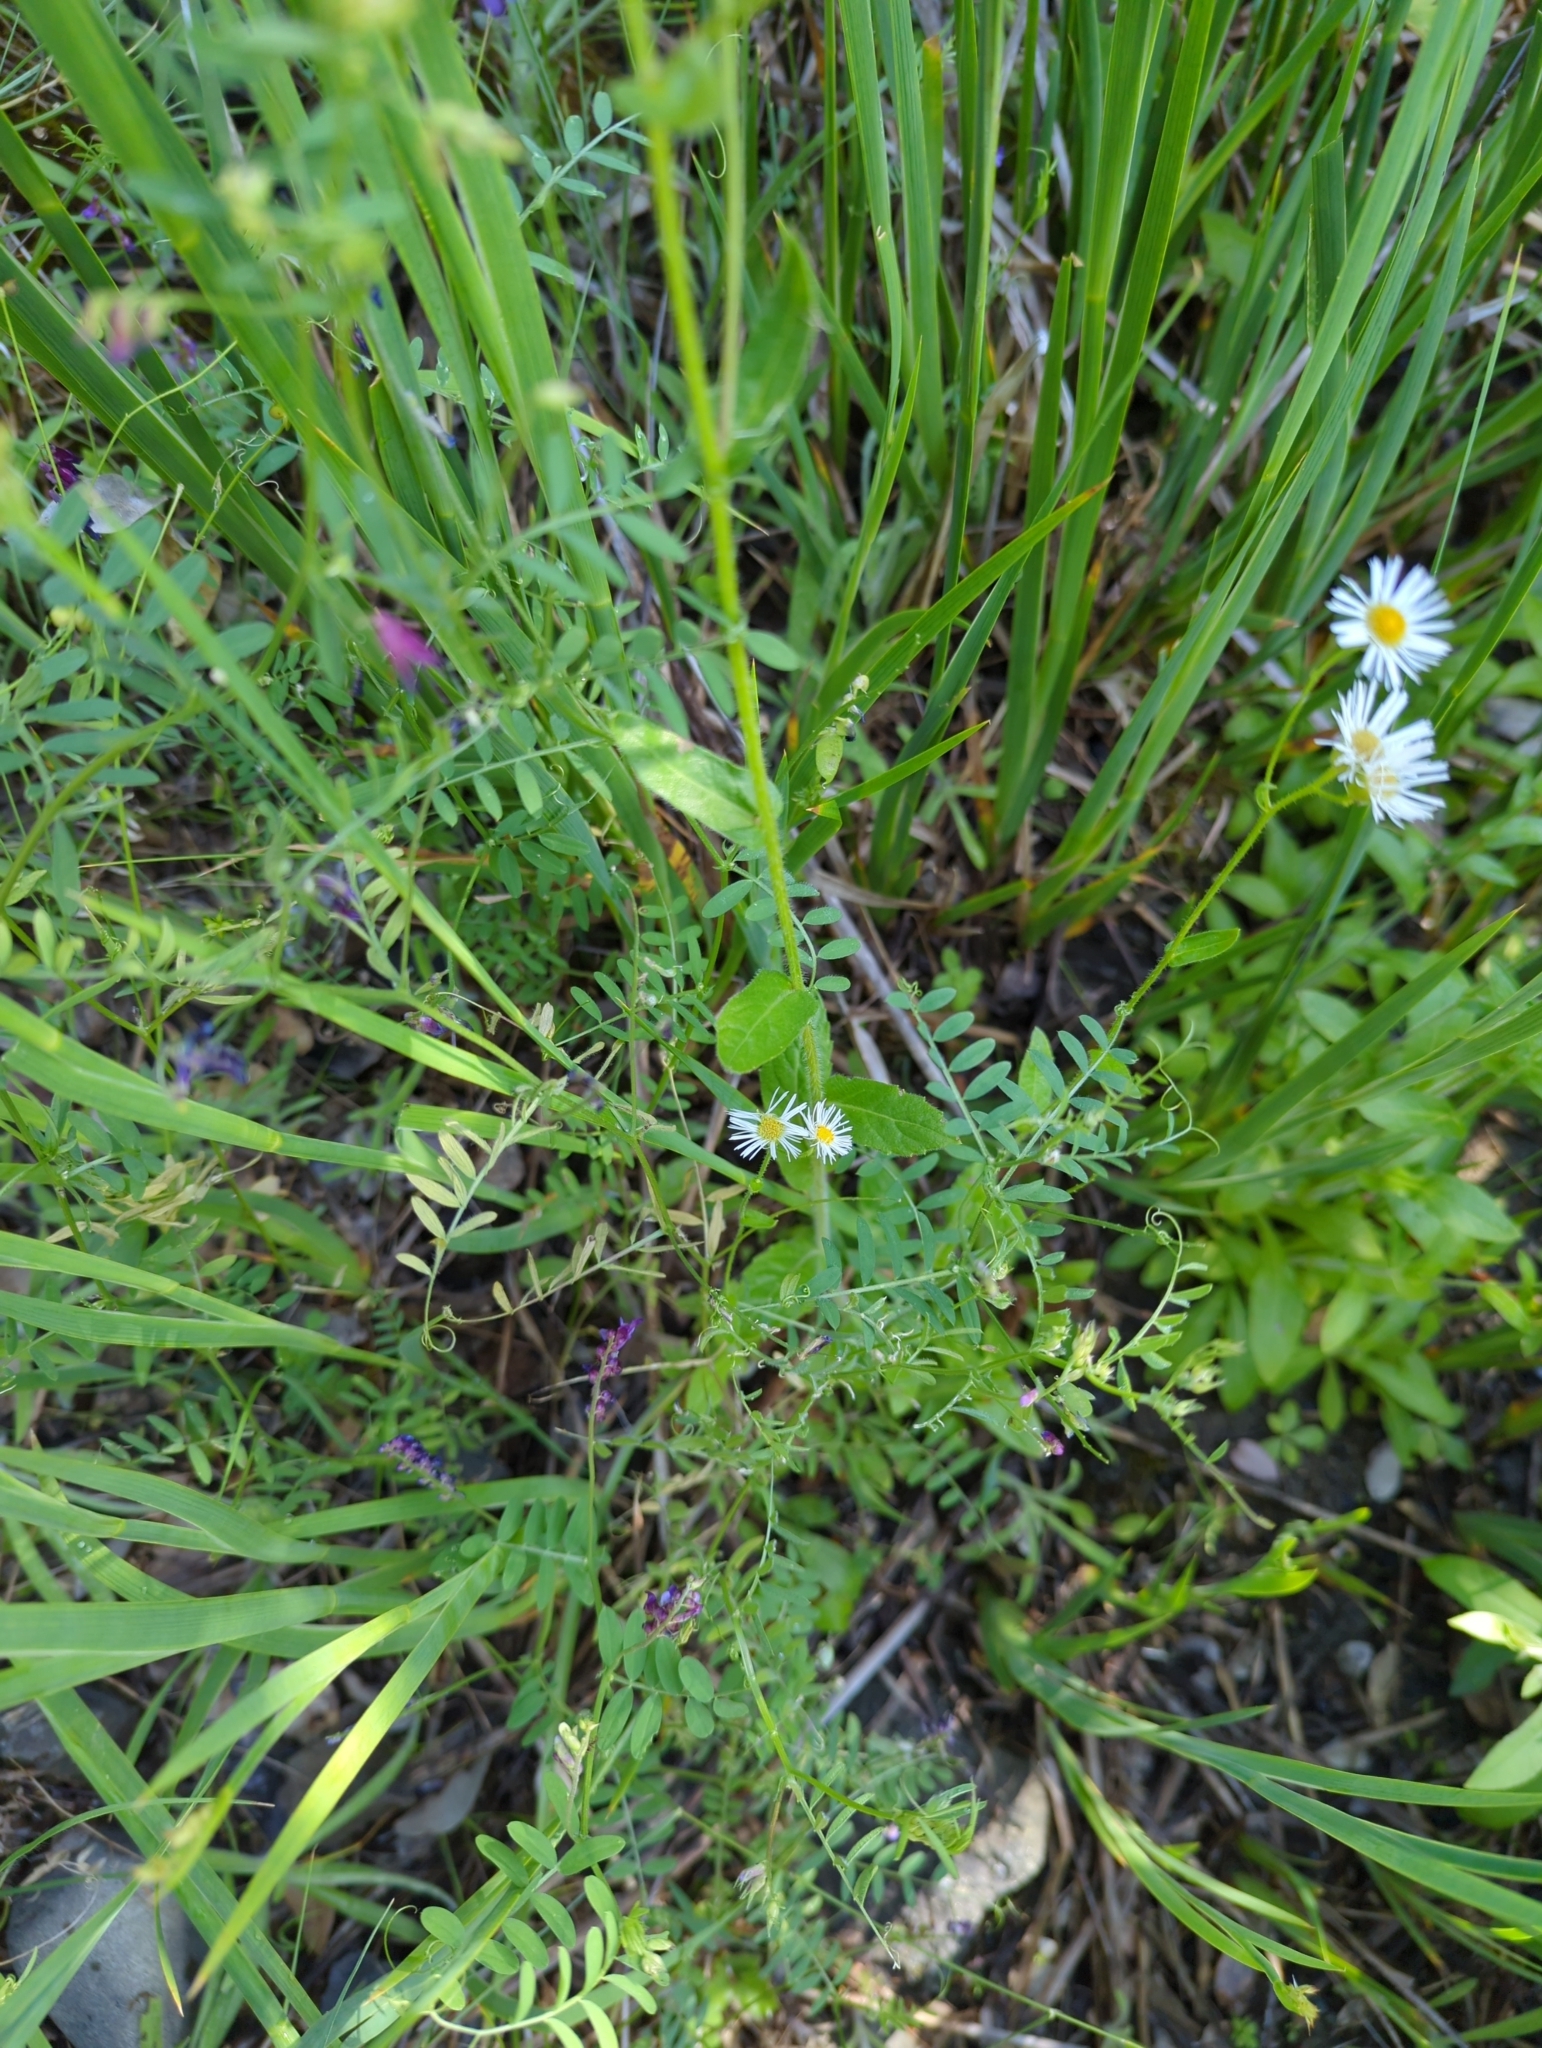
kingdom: Plantae
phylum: Tracheophyta
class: Magnoliopsida
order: Asterales
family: Asteraceae
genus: Erigeron
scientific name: Erigeron philadelphicus
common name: Robin's-plantain
